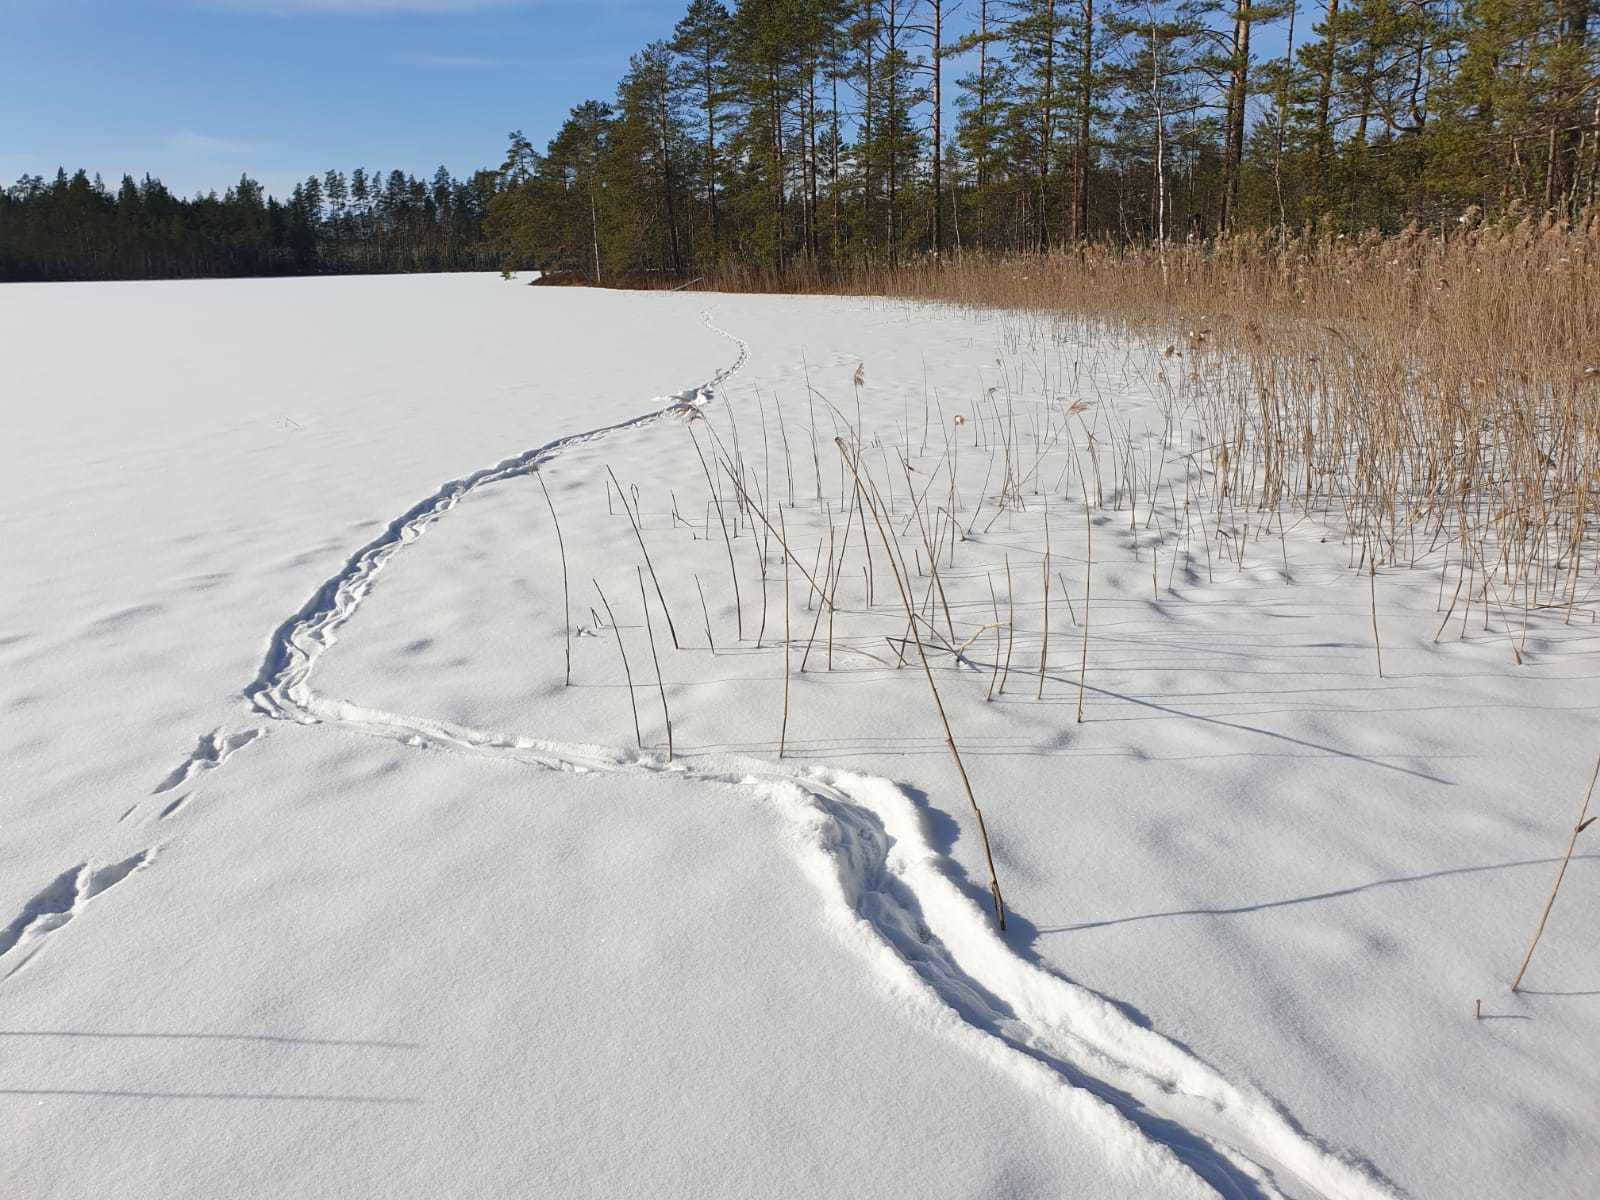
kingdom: Animalia
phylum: Chordata
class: Mammalia
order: Carnivora
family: Mustelidae
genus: Lutra
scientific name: Lutra lutra
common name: European otter
